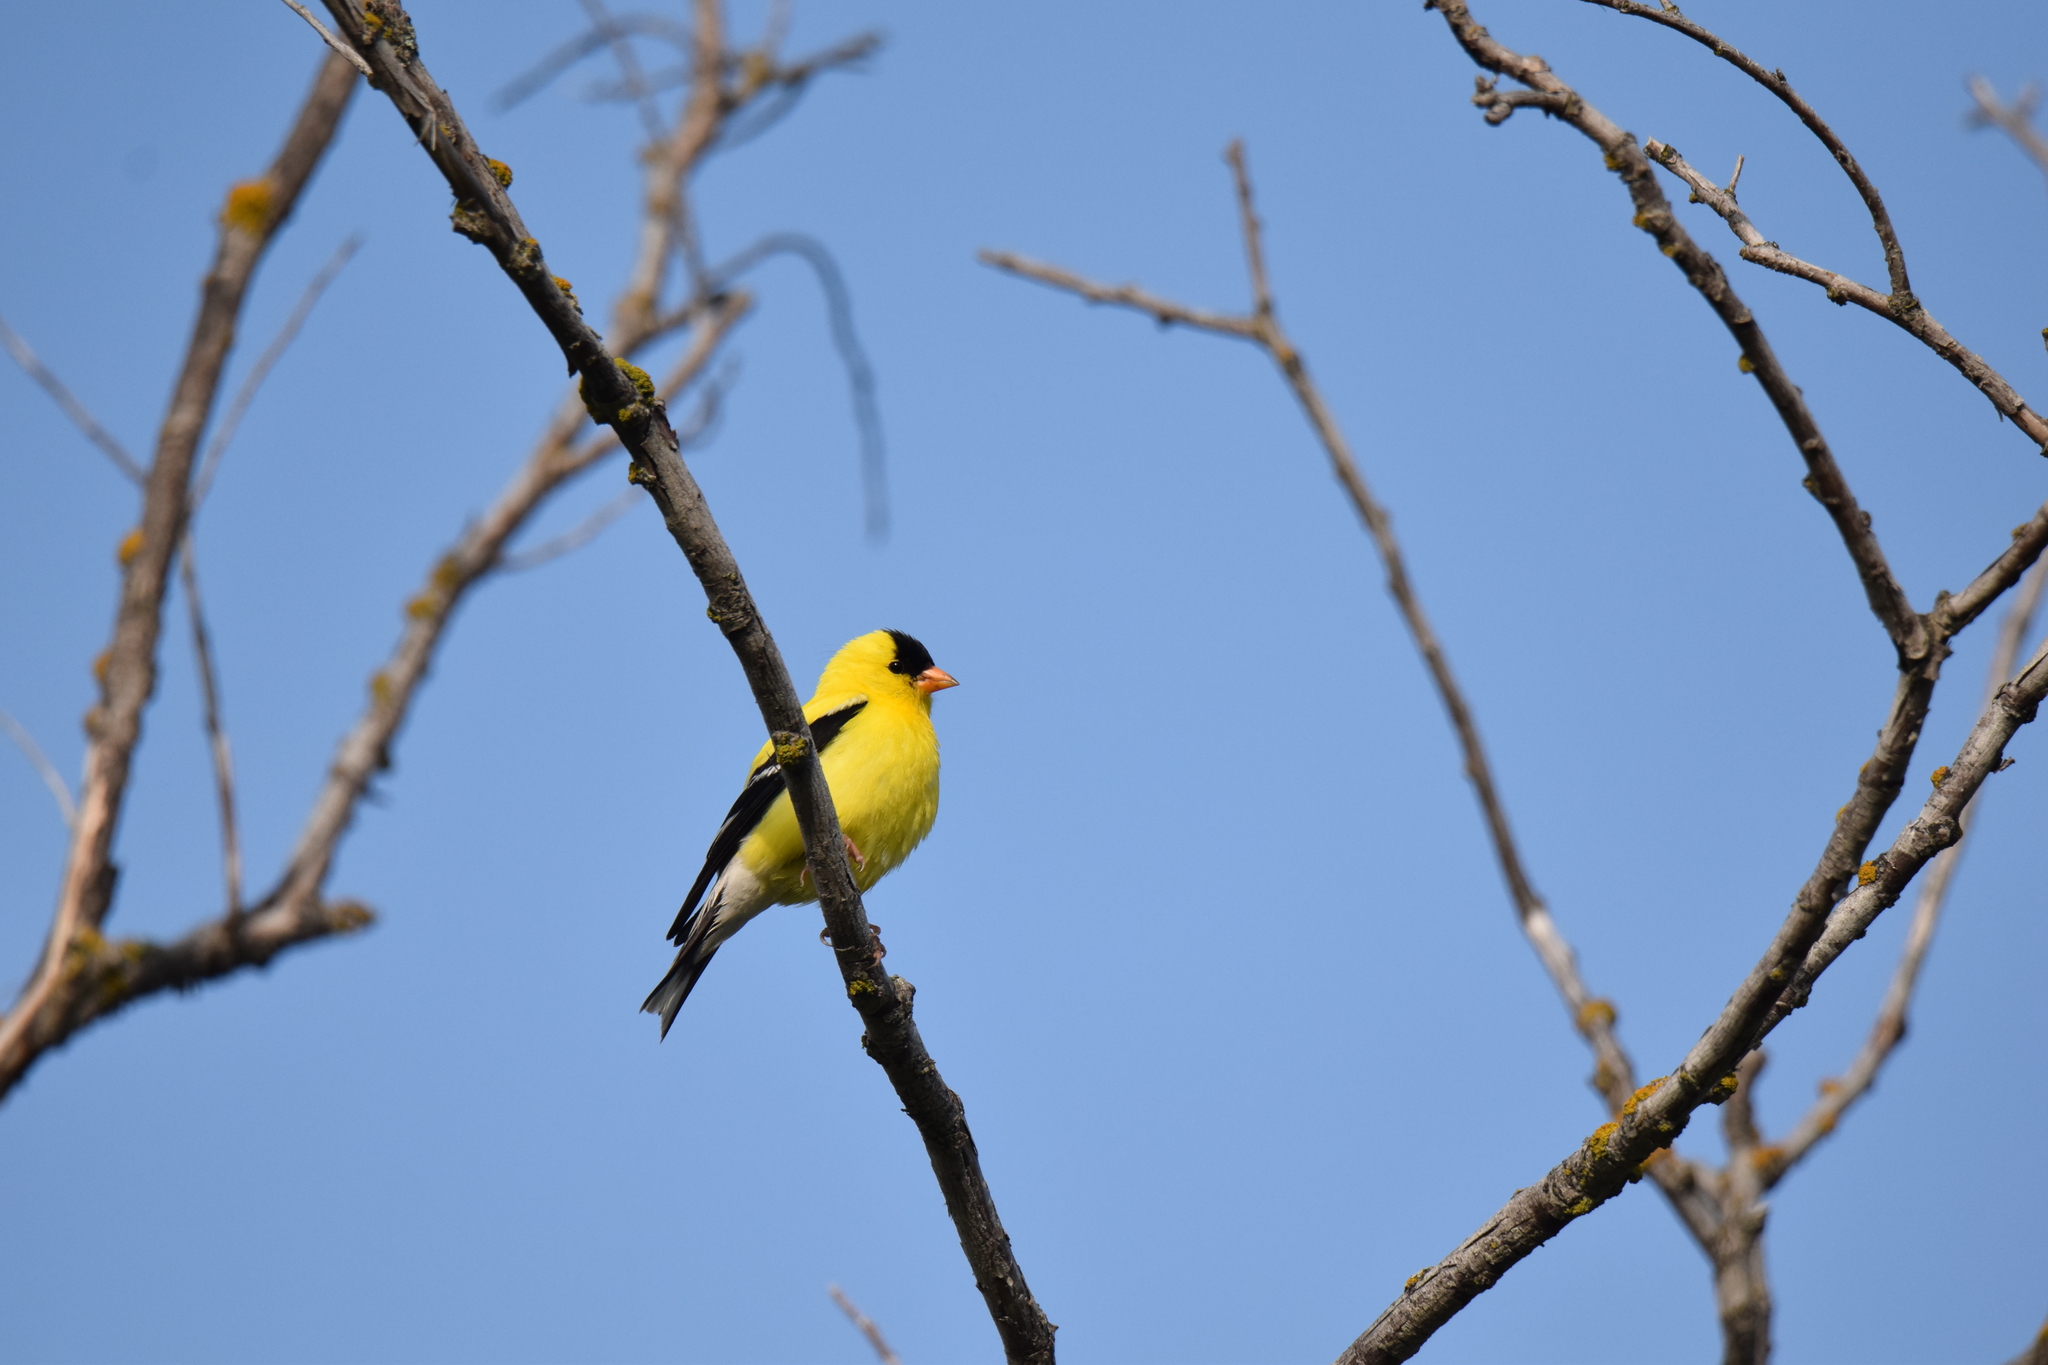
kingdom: Animalia
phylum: Chordata
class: Aves
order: Passeriformes
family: Fringillidae
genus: Spinus
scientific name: Spinus tristis
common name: American goldfinch
